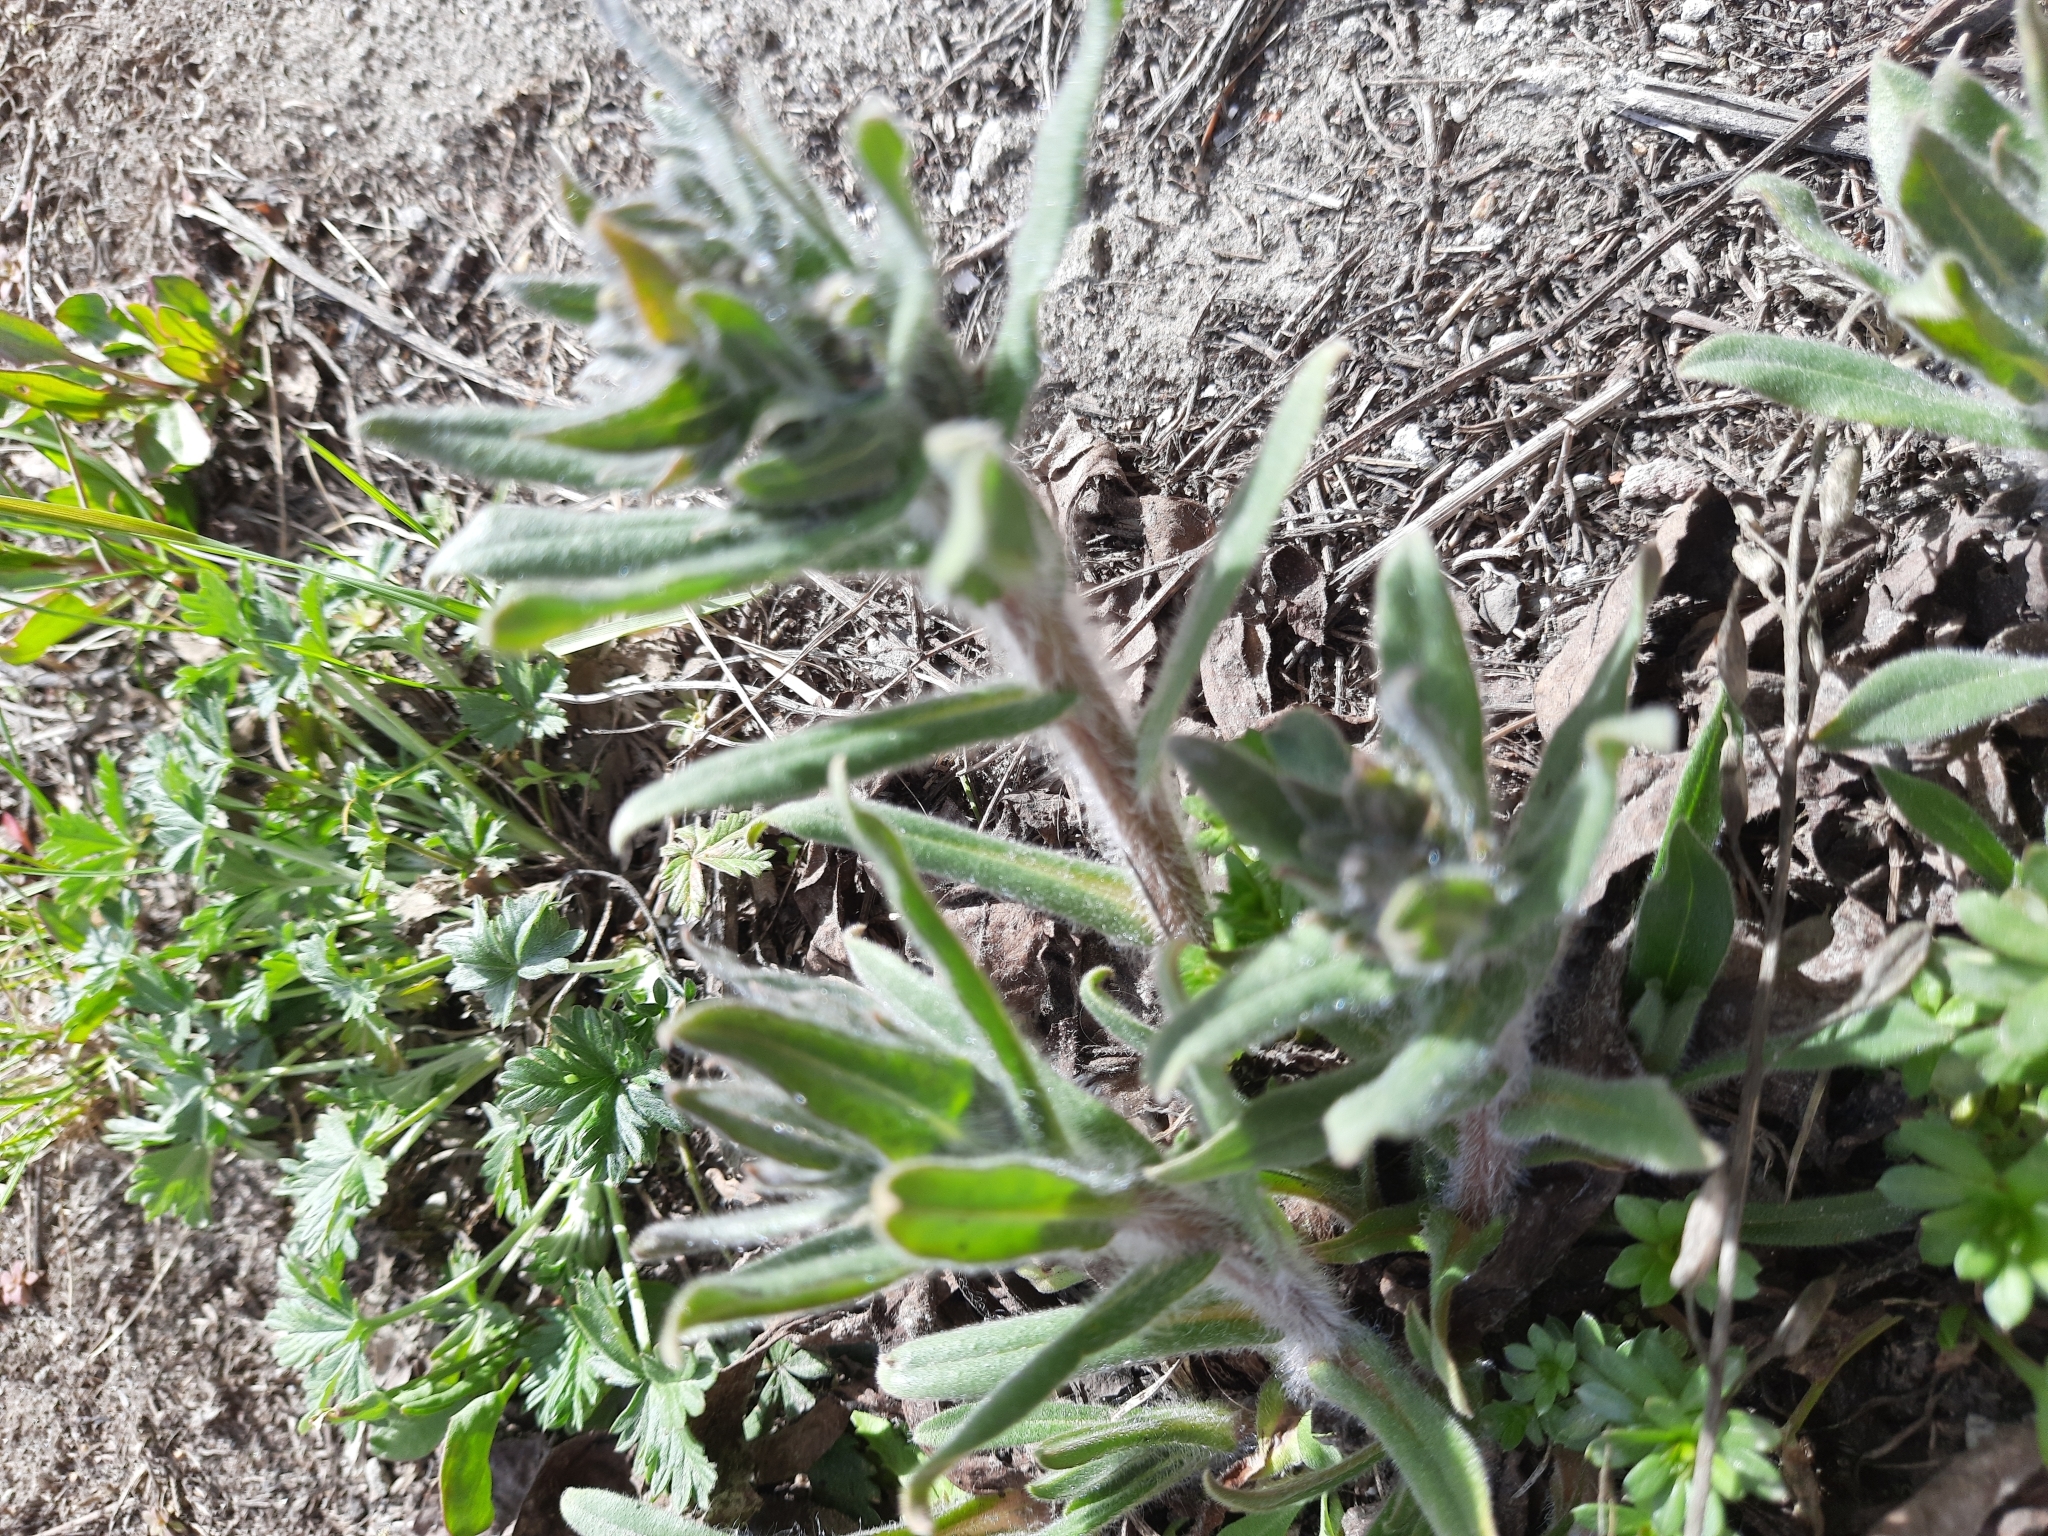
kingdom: Plantae
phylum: Tracheophyta
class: Magnoliopsida
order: Boraginales
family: Boraginaceae
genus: Nonea
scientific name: Nonea pulla
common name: Brown nonea
